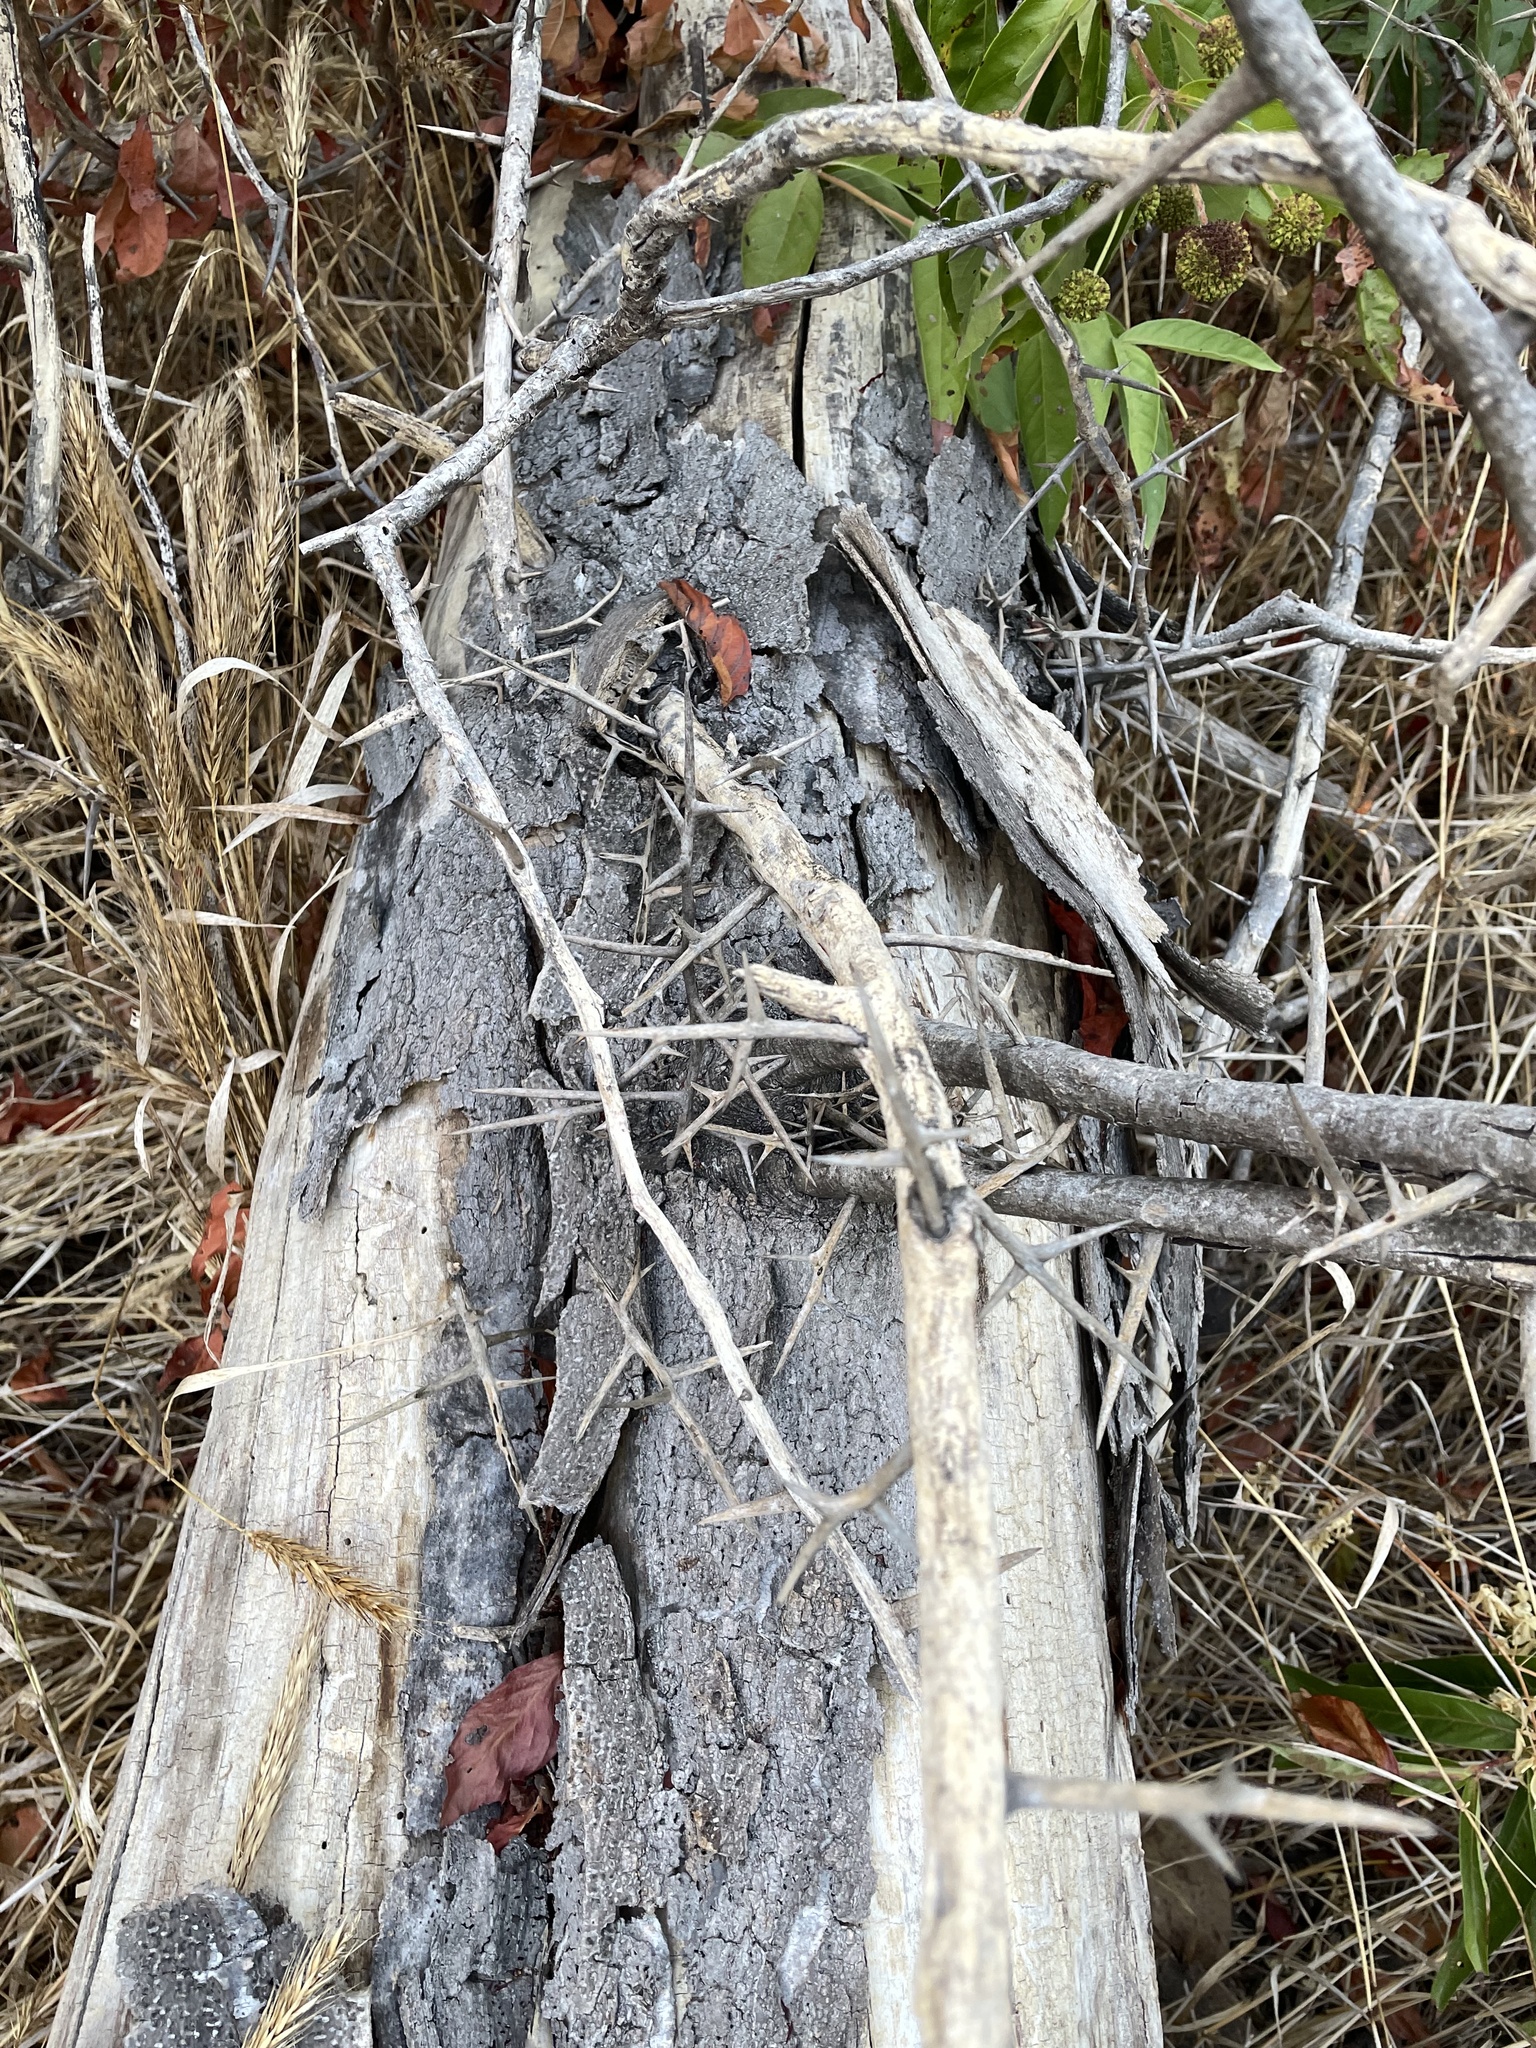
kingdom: Plantae
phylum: Tracheophyta
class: Magnoliopsida
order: Fabales
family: Fabaceae
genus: Gleditsia
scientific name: Gleditsia triacanthos
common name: Common honeylocust
